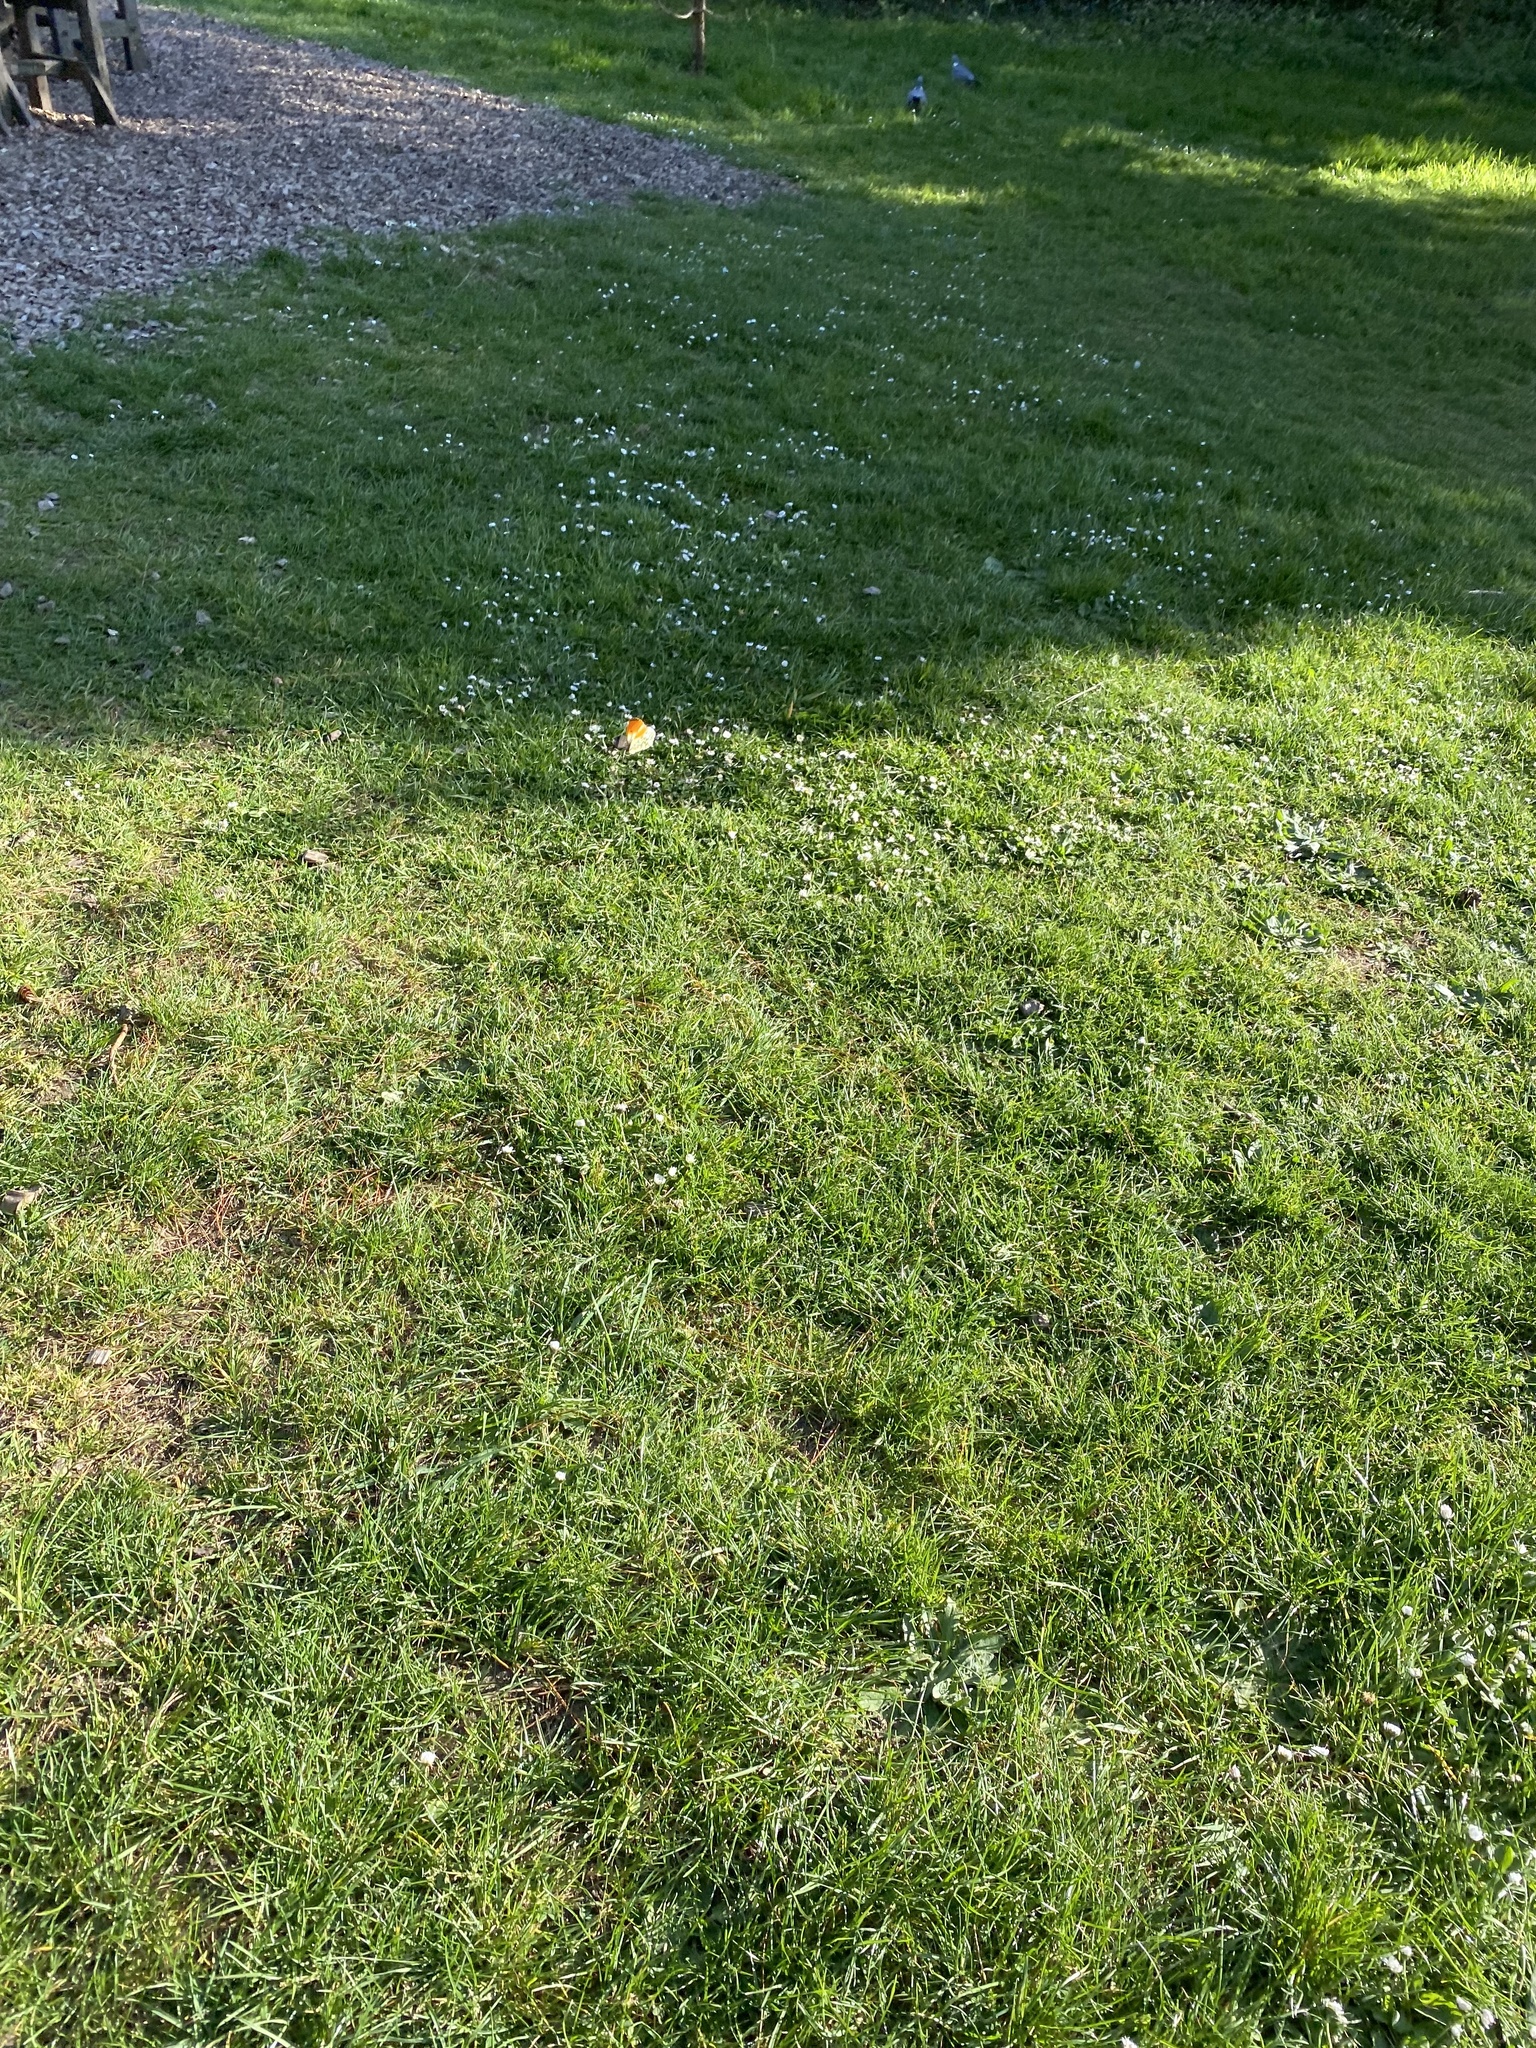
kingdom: Animalia
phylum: Arthropoda
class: Insecta
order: Lepidoptera
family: Pieridae
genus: Anthocharis
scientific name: Anthocharis cardamines
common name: Orange-tip
